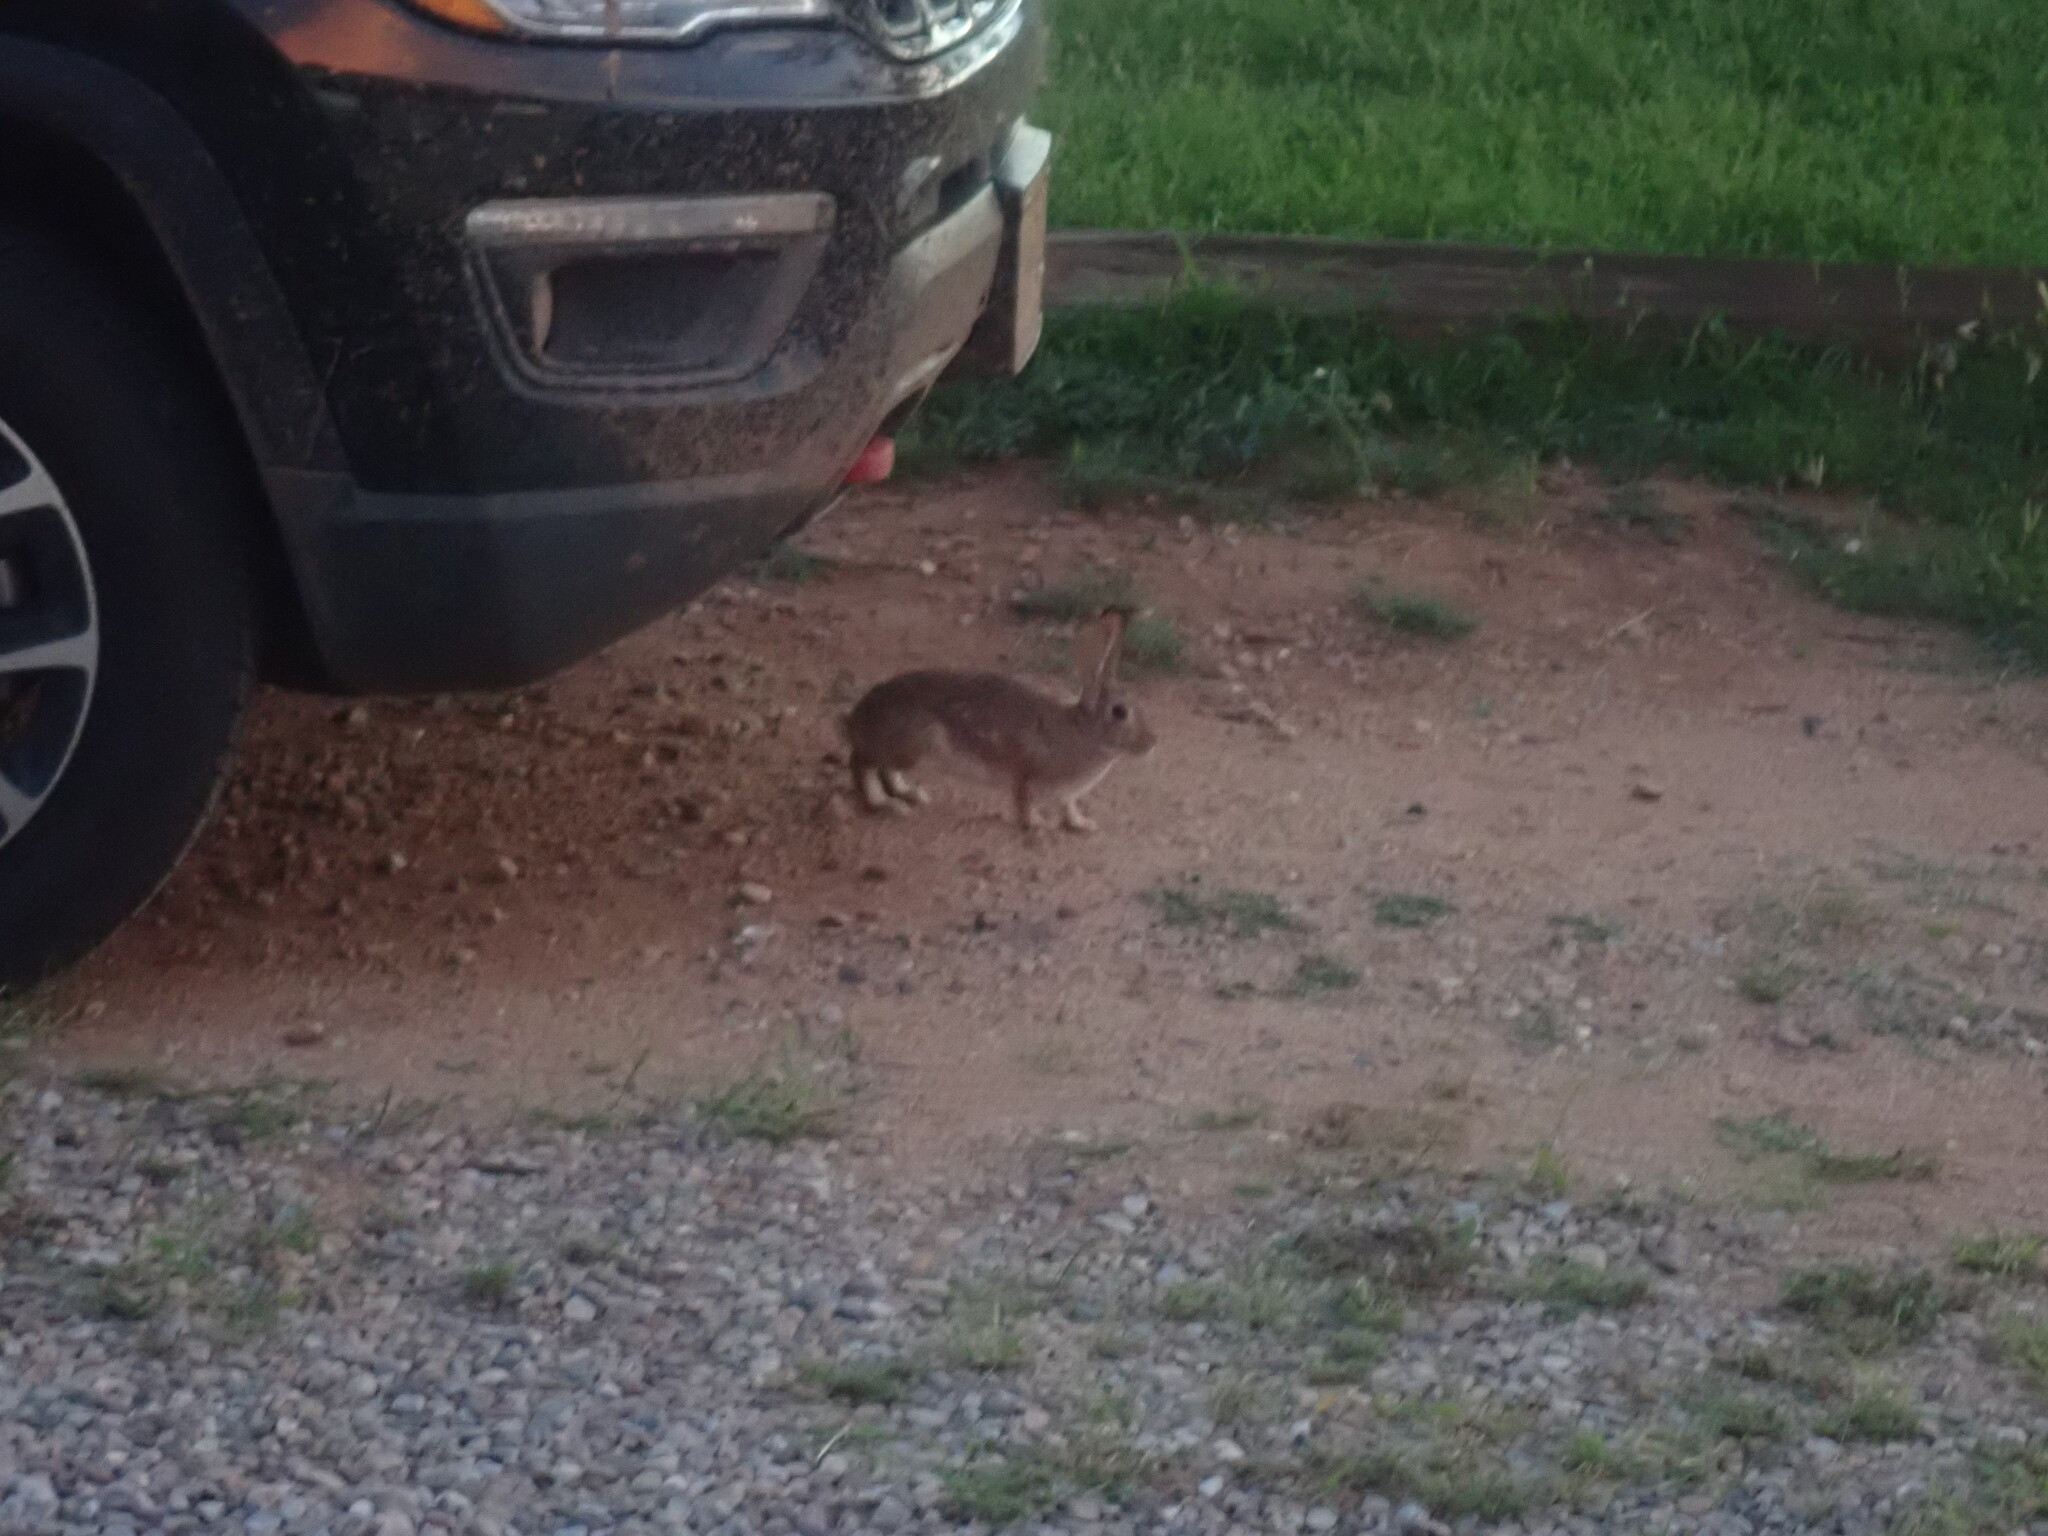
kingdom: Animalia
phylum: Chordata
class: Mammalia
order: Lagomorpha
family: Leporidae
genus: Sylvilagus
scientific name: Sylvilagus audubonii
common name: Desert cottontail
